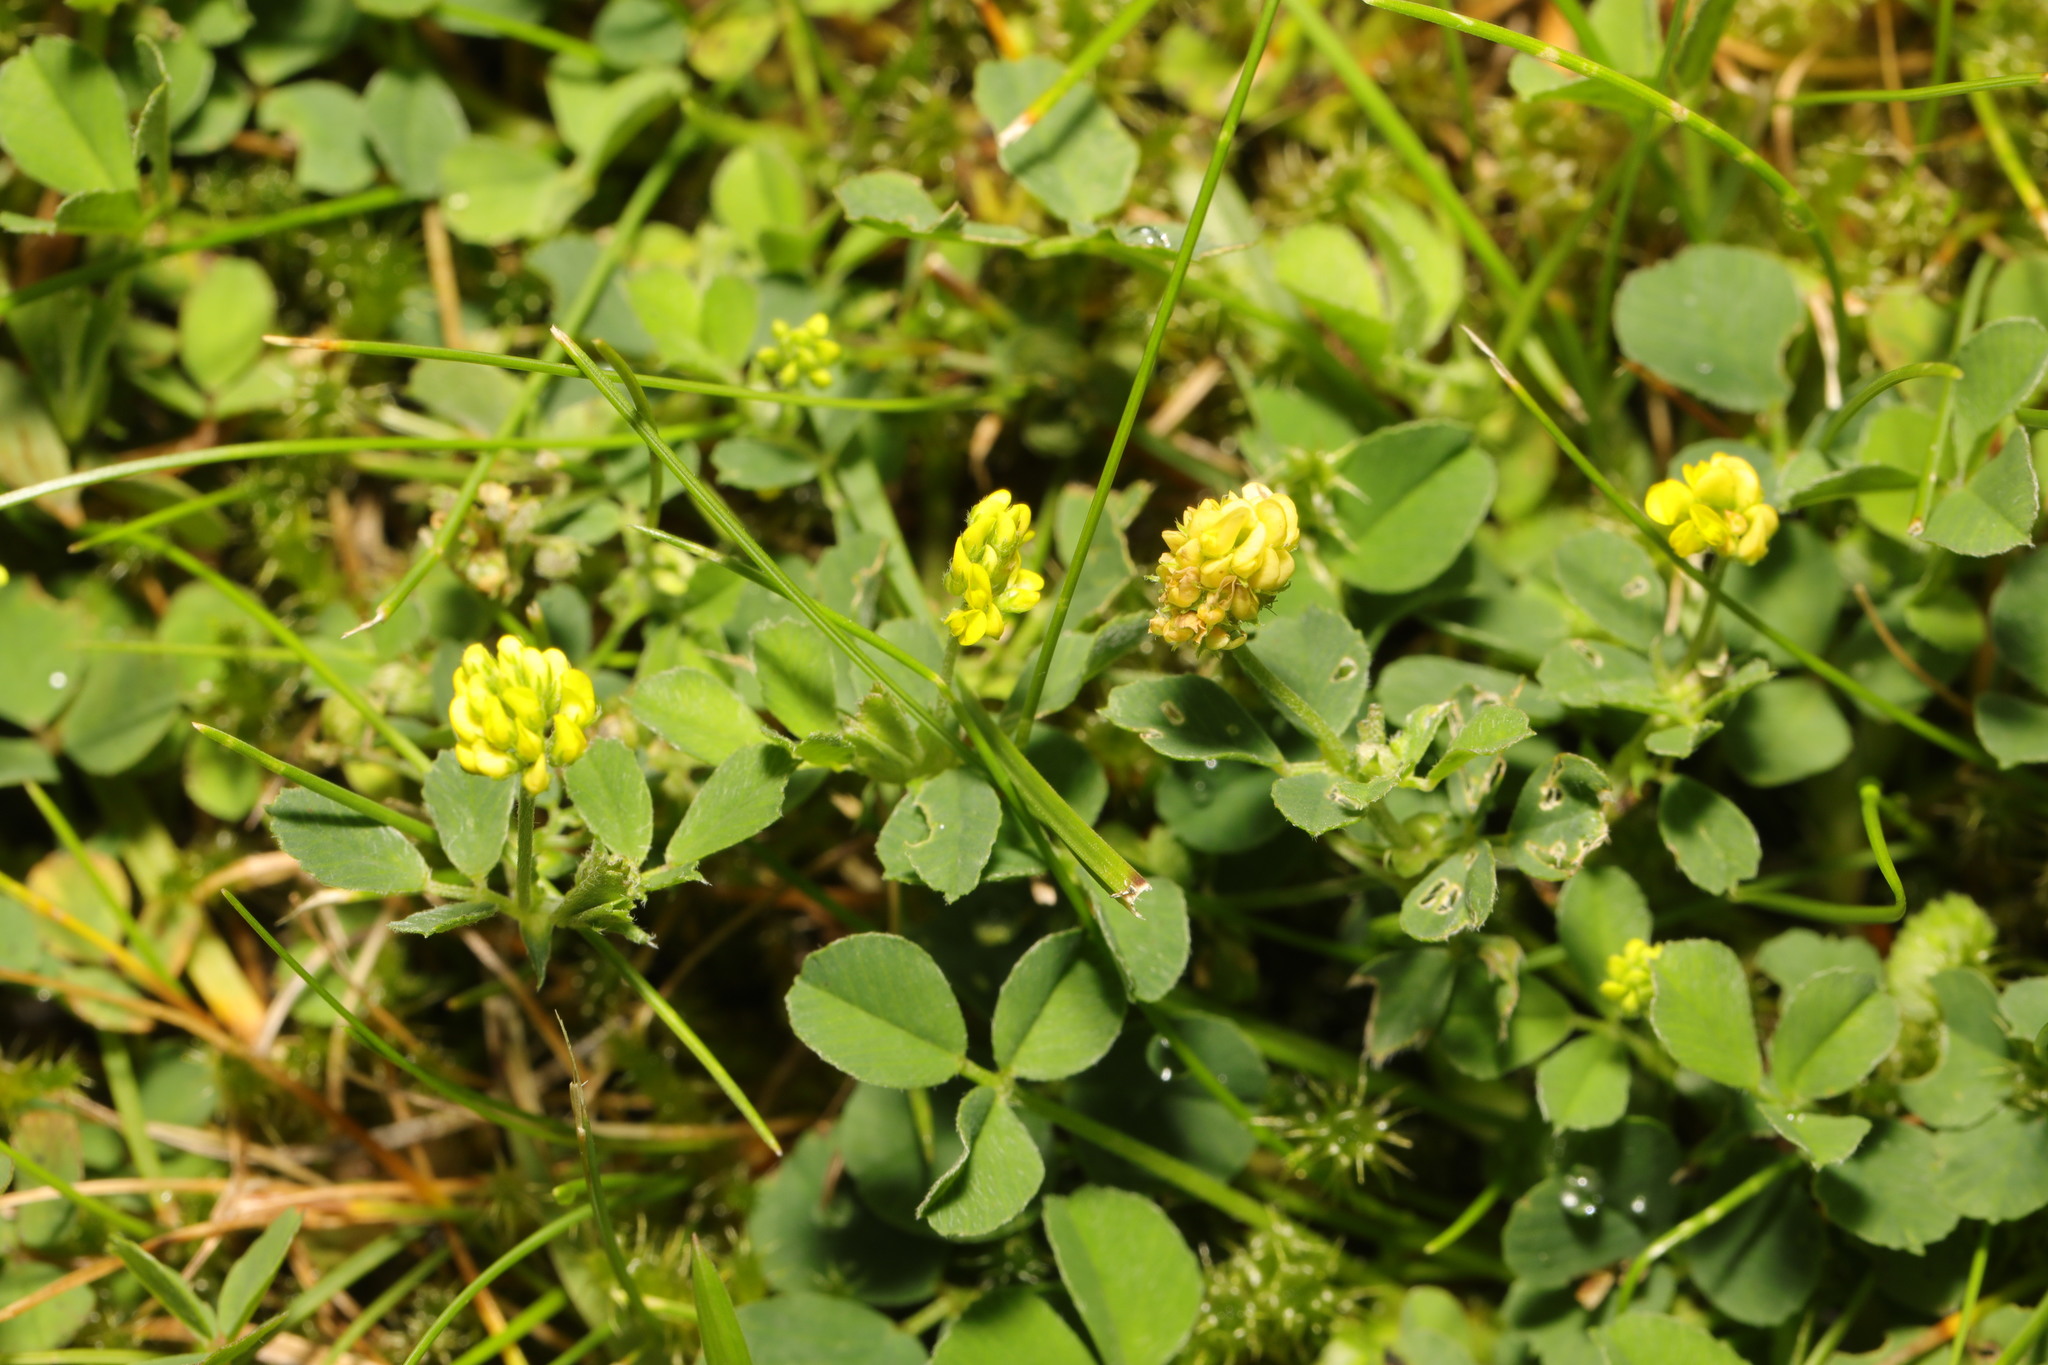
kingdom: Plantae
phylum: Tracheophyta
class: Magnoliopsida
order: Fabales
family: Fabaceae
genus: Medicago
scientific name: Medicago lupulina
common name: Black medick
